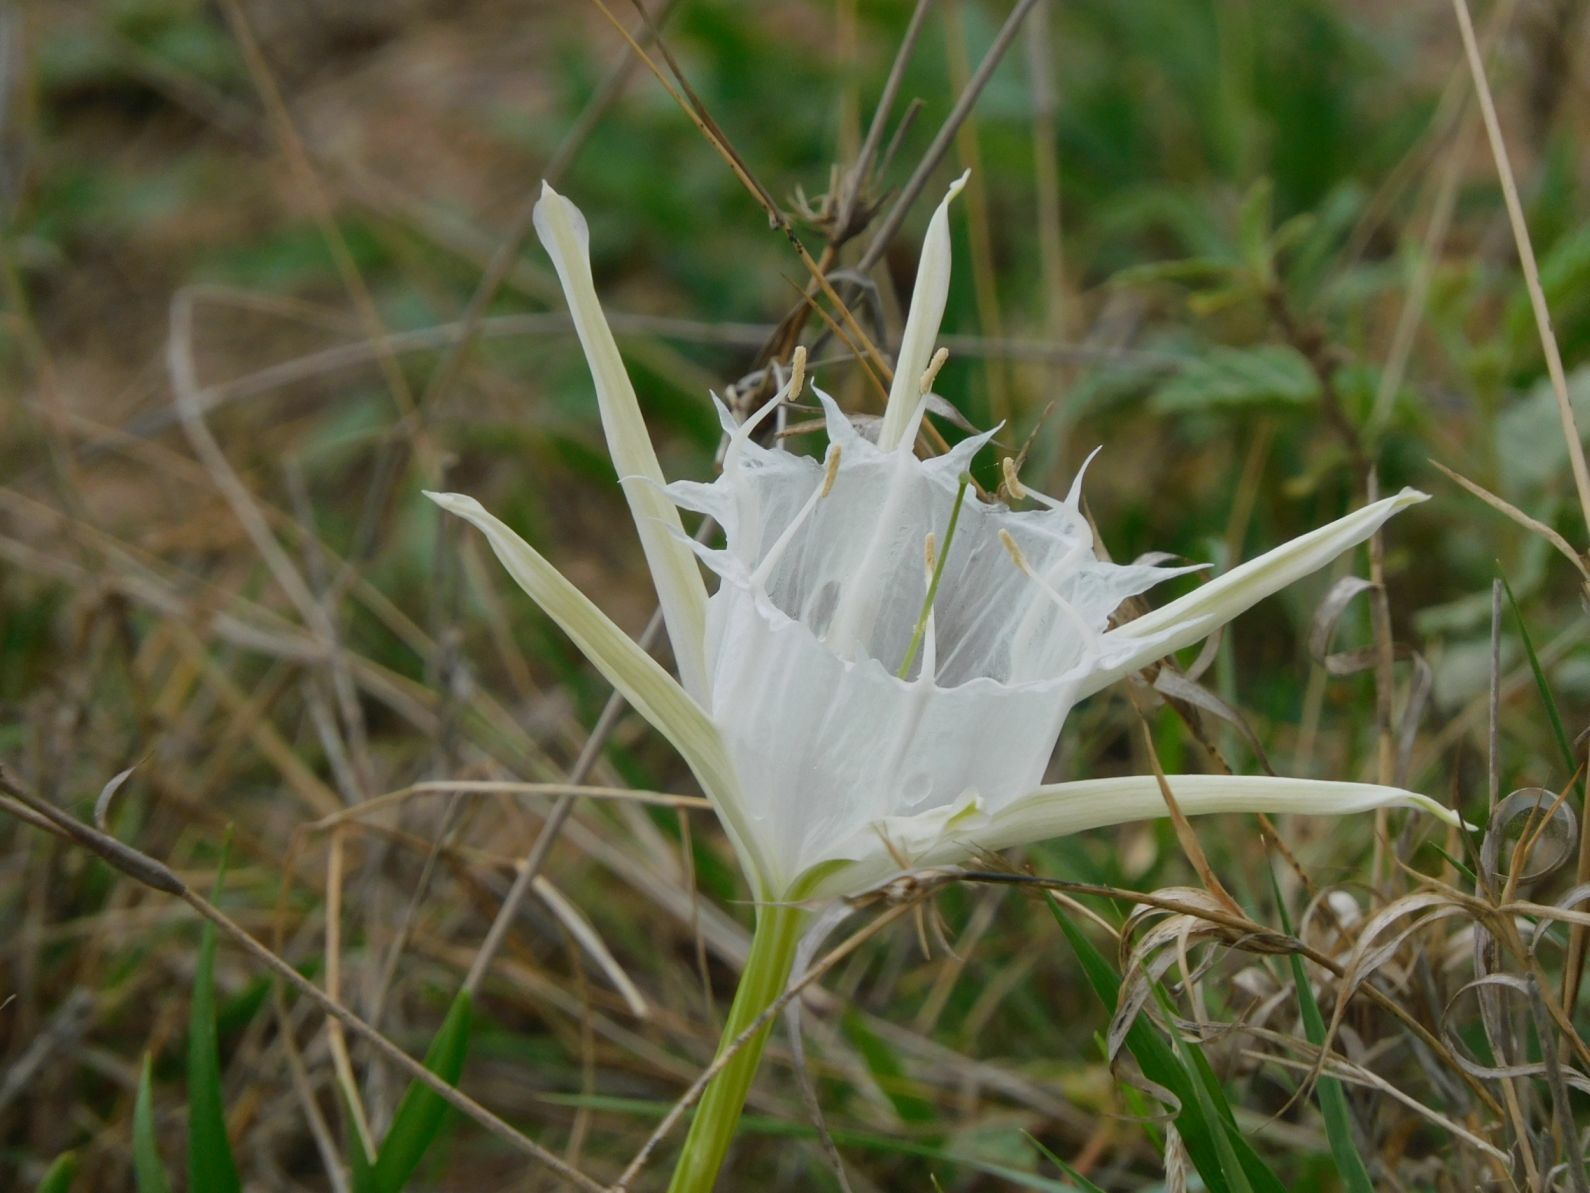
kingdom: Plantae
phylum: Tracheophyta
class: Liliopsida
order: Asparagales
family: Amaryllidaceae
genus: Pancratium
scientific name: Pancratium tenuifolium
